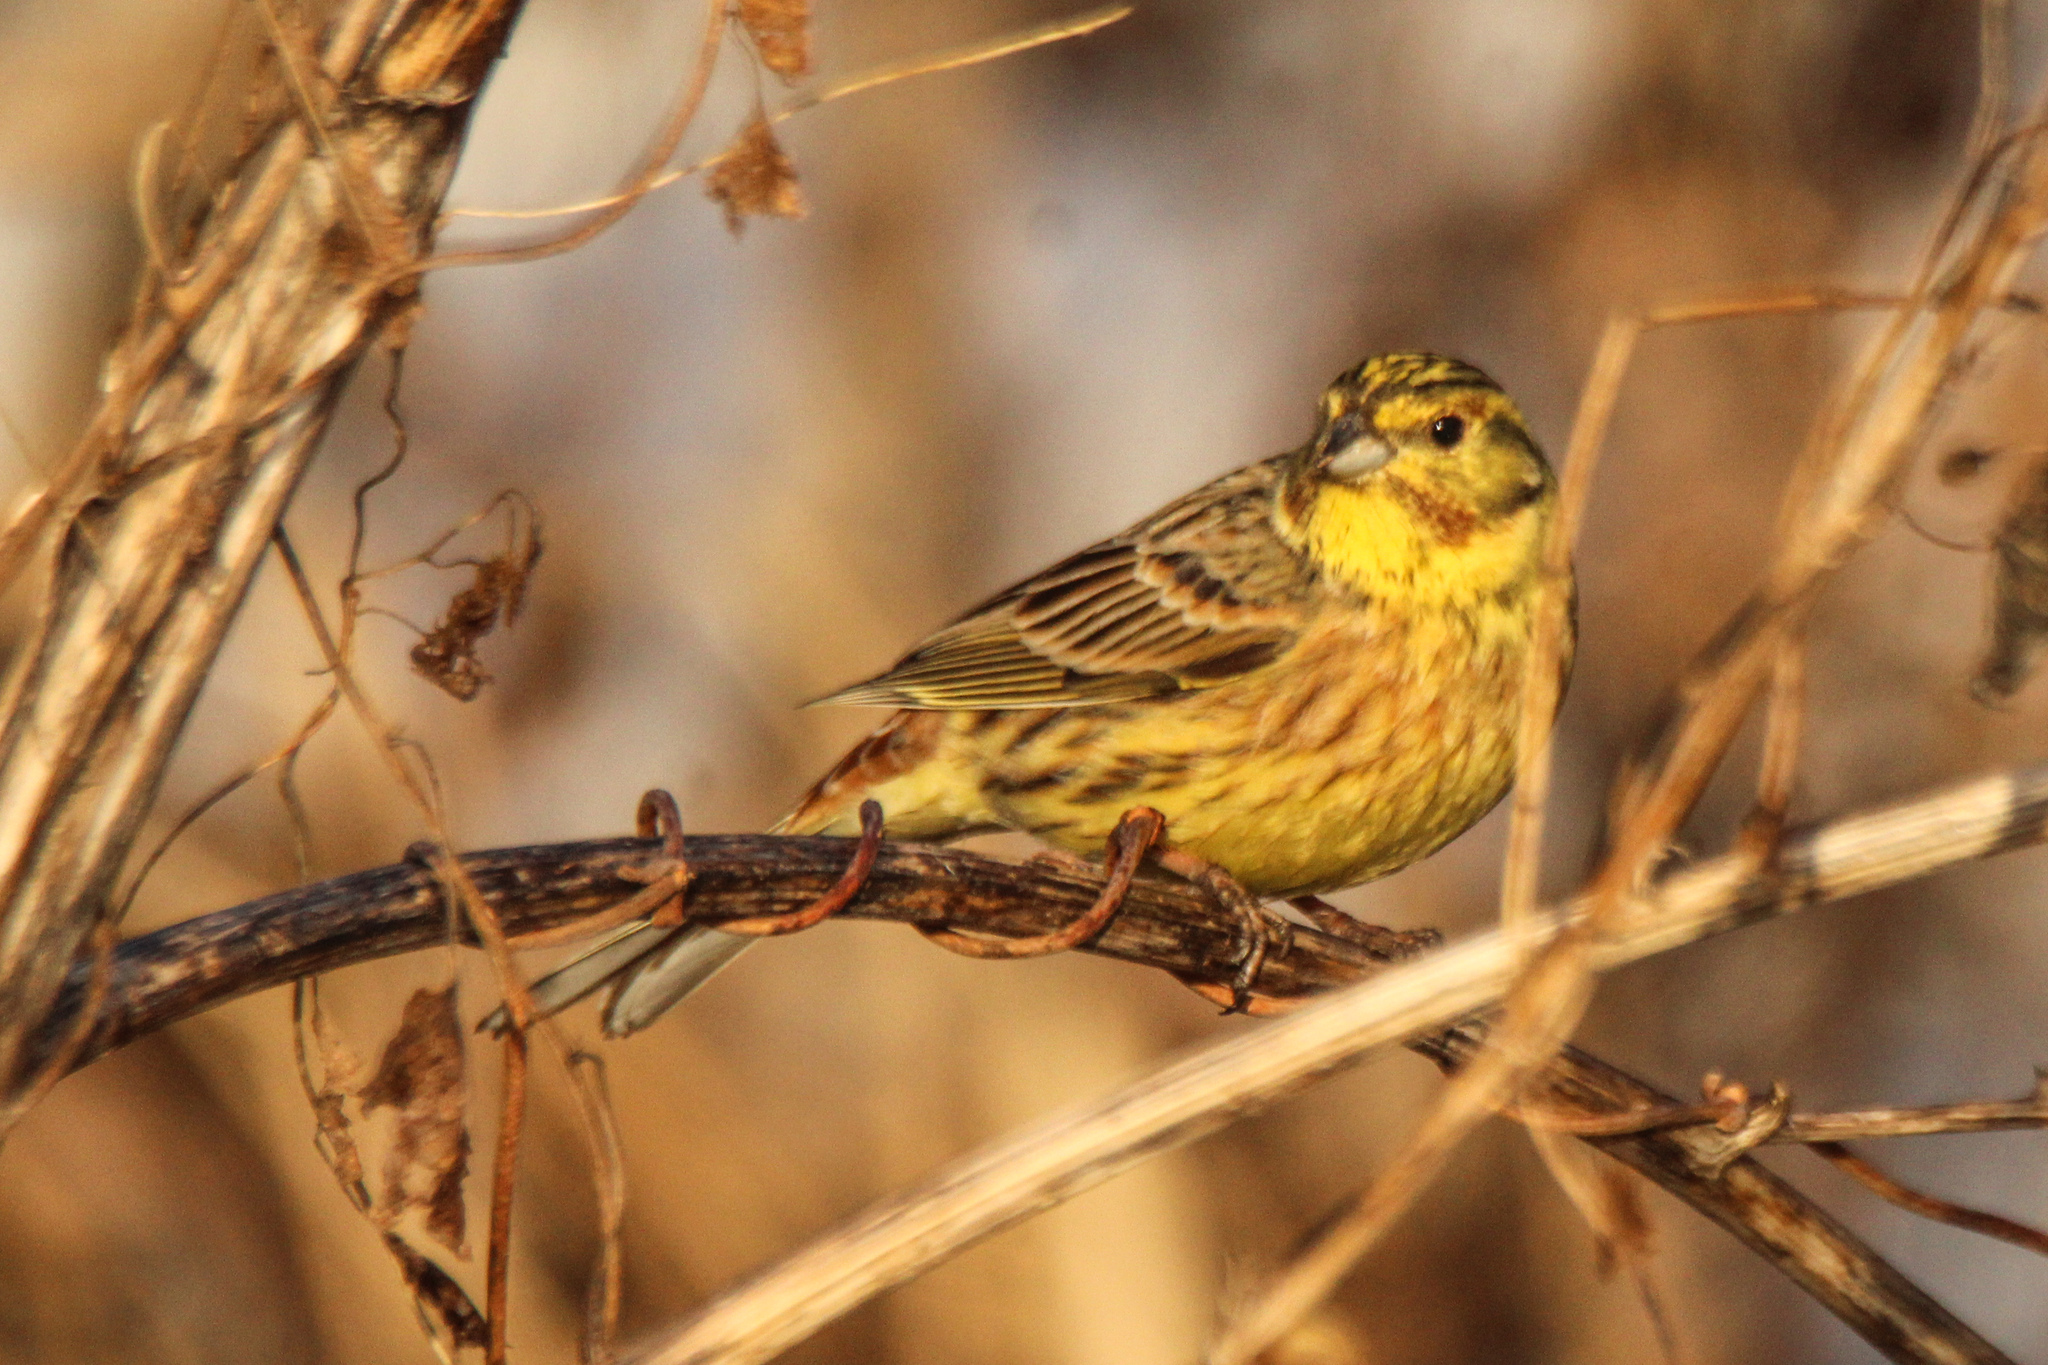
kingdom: Animalia
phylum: Chordata
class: Aves
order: Passeriformes
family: Emberizidae
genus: Emberiza
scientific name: Emberiza
